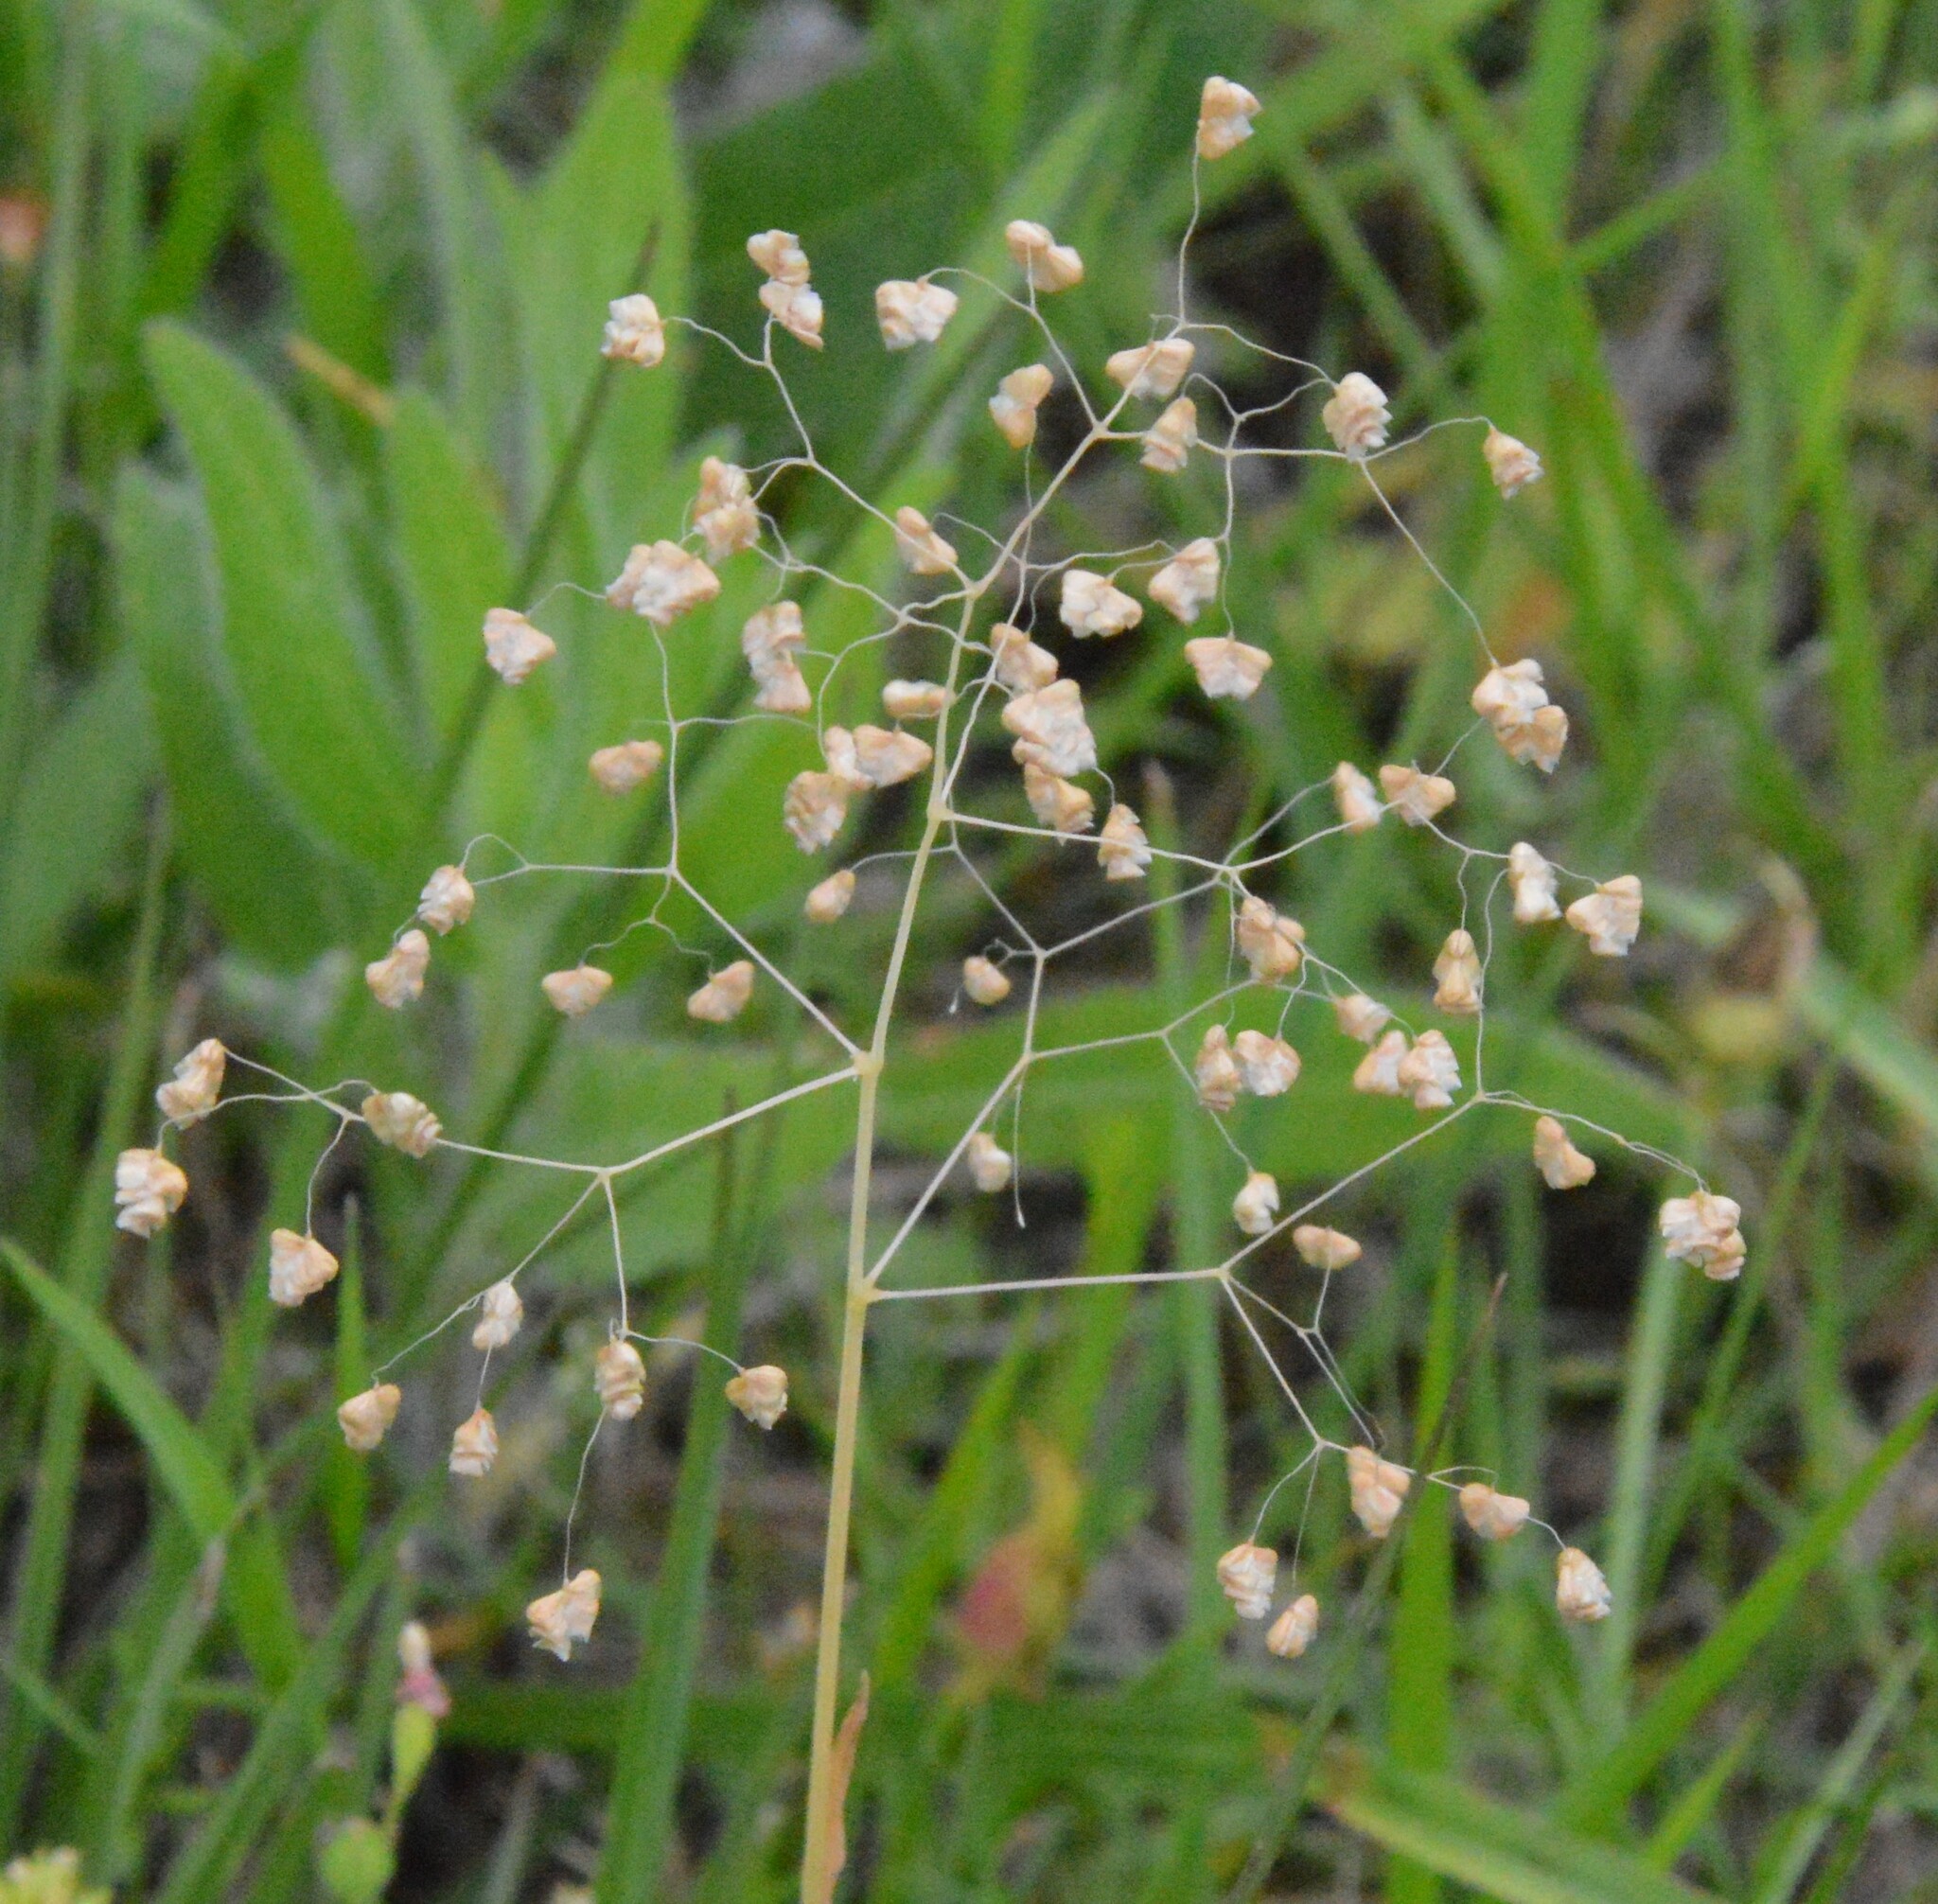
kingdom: Plantae
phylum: Tracheophyta
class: Liliopsida
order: Poales
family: Poaceae
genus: Briza
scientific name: Briza minor
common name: Lesser quaking-grass
